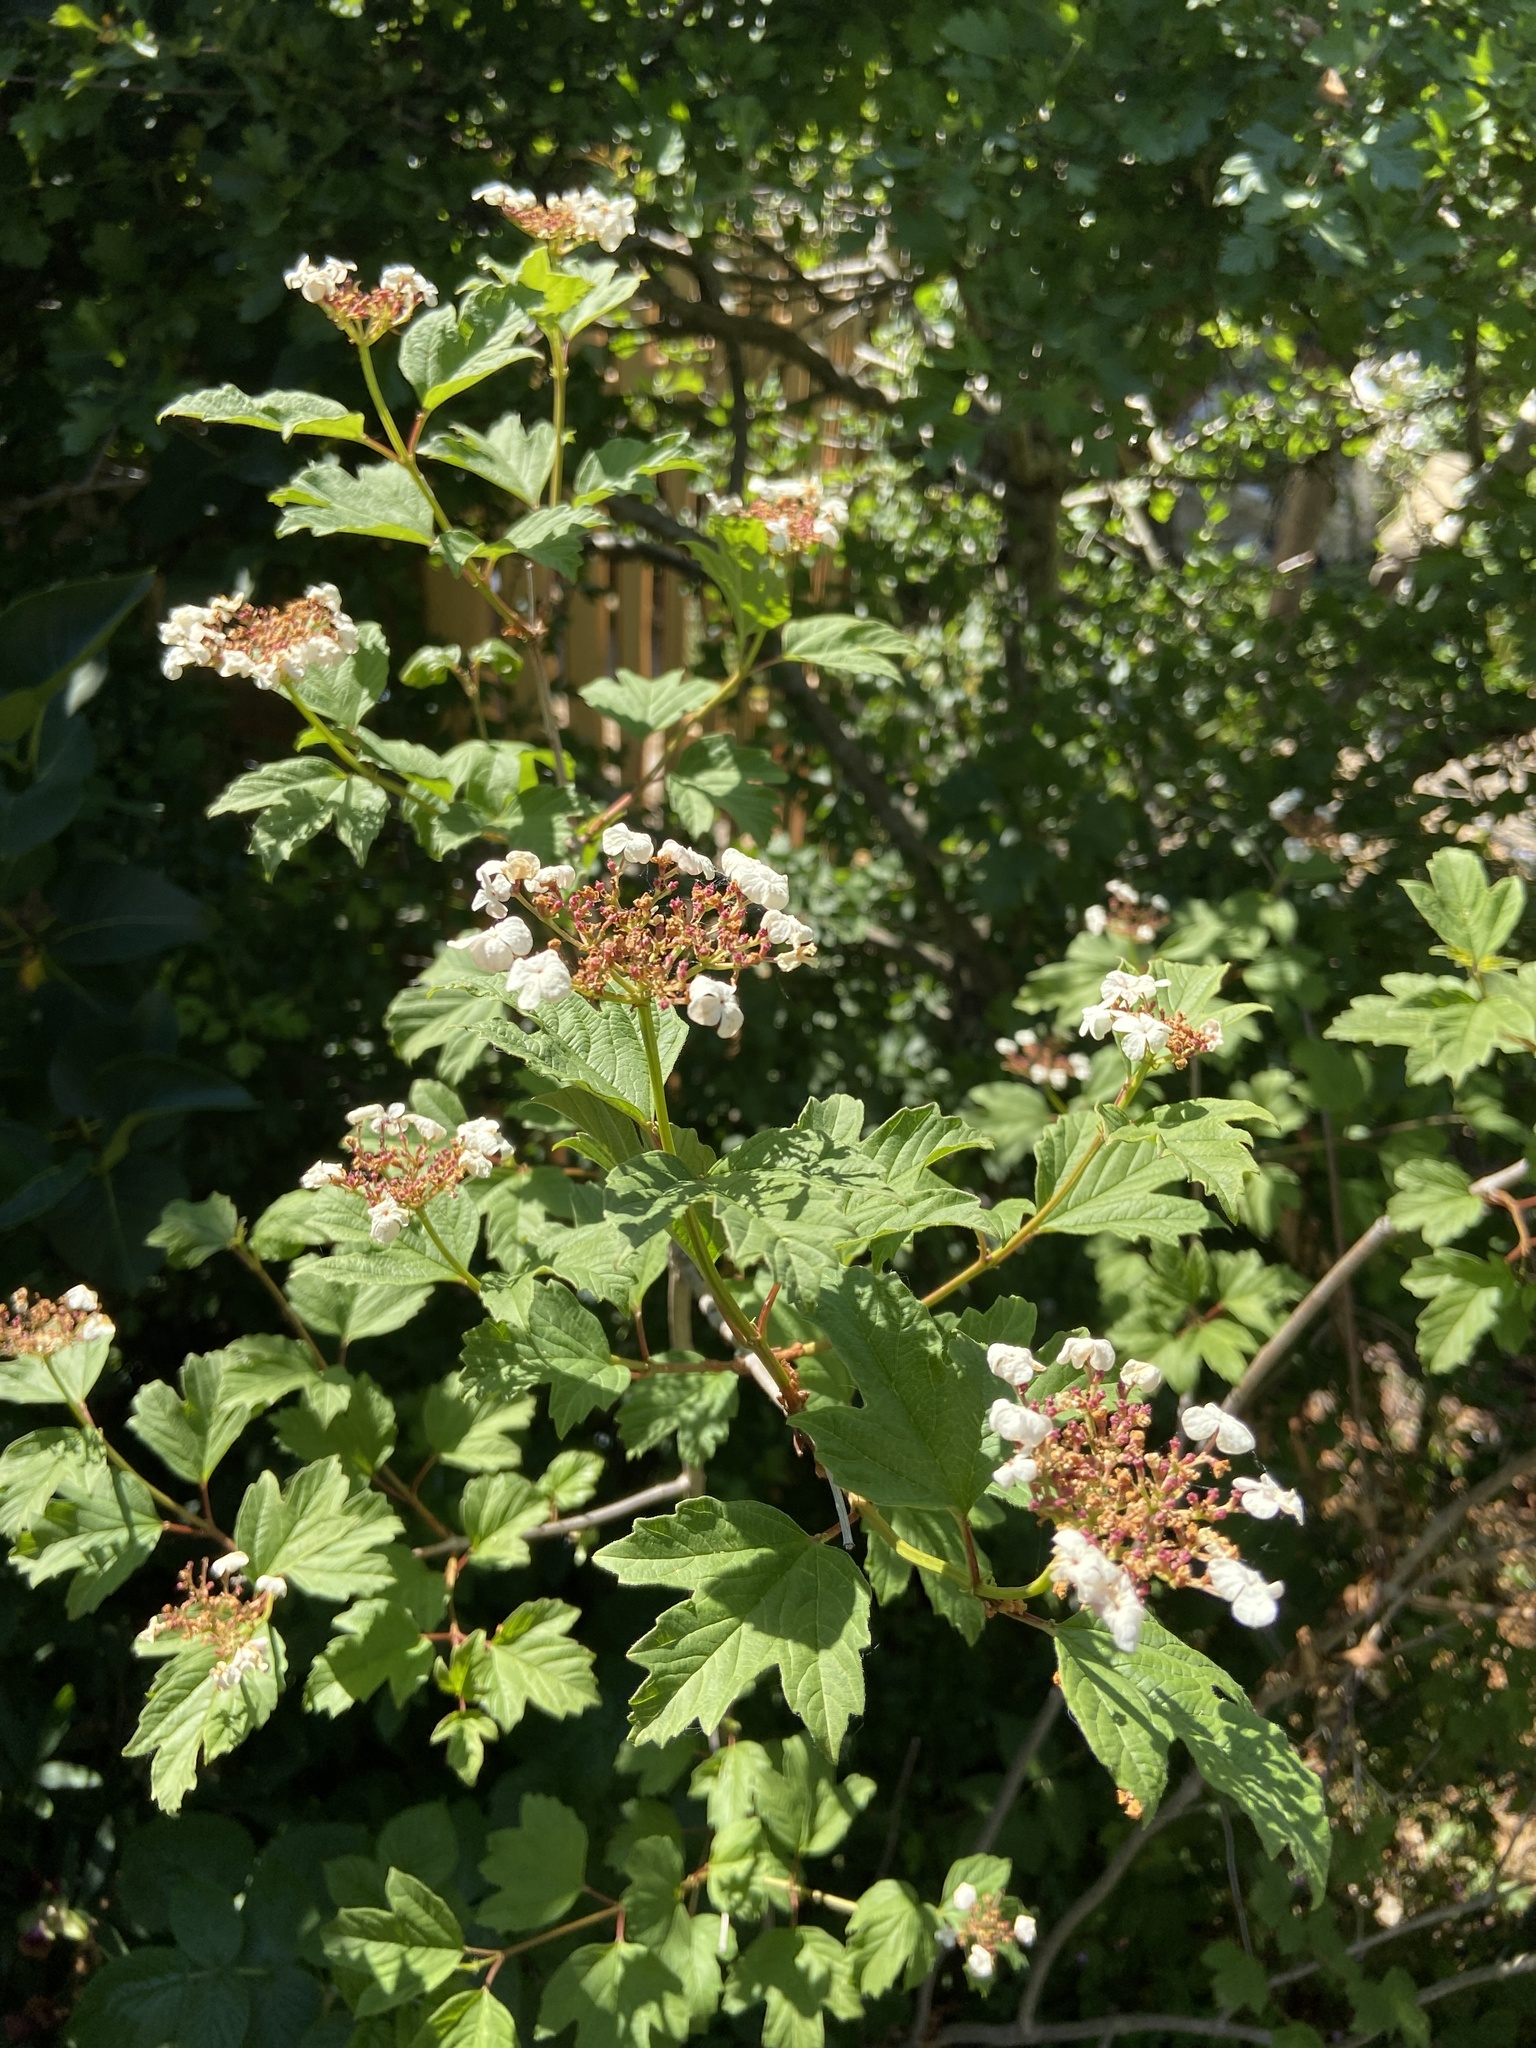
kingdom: Plantae
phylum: Tracheophyta
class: Magnoliopsida
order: Dipsacales
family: Viburnaceae
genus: Viburnum
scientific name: Viburnum opulus
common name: Guelder-rose
